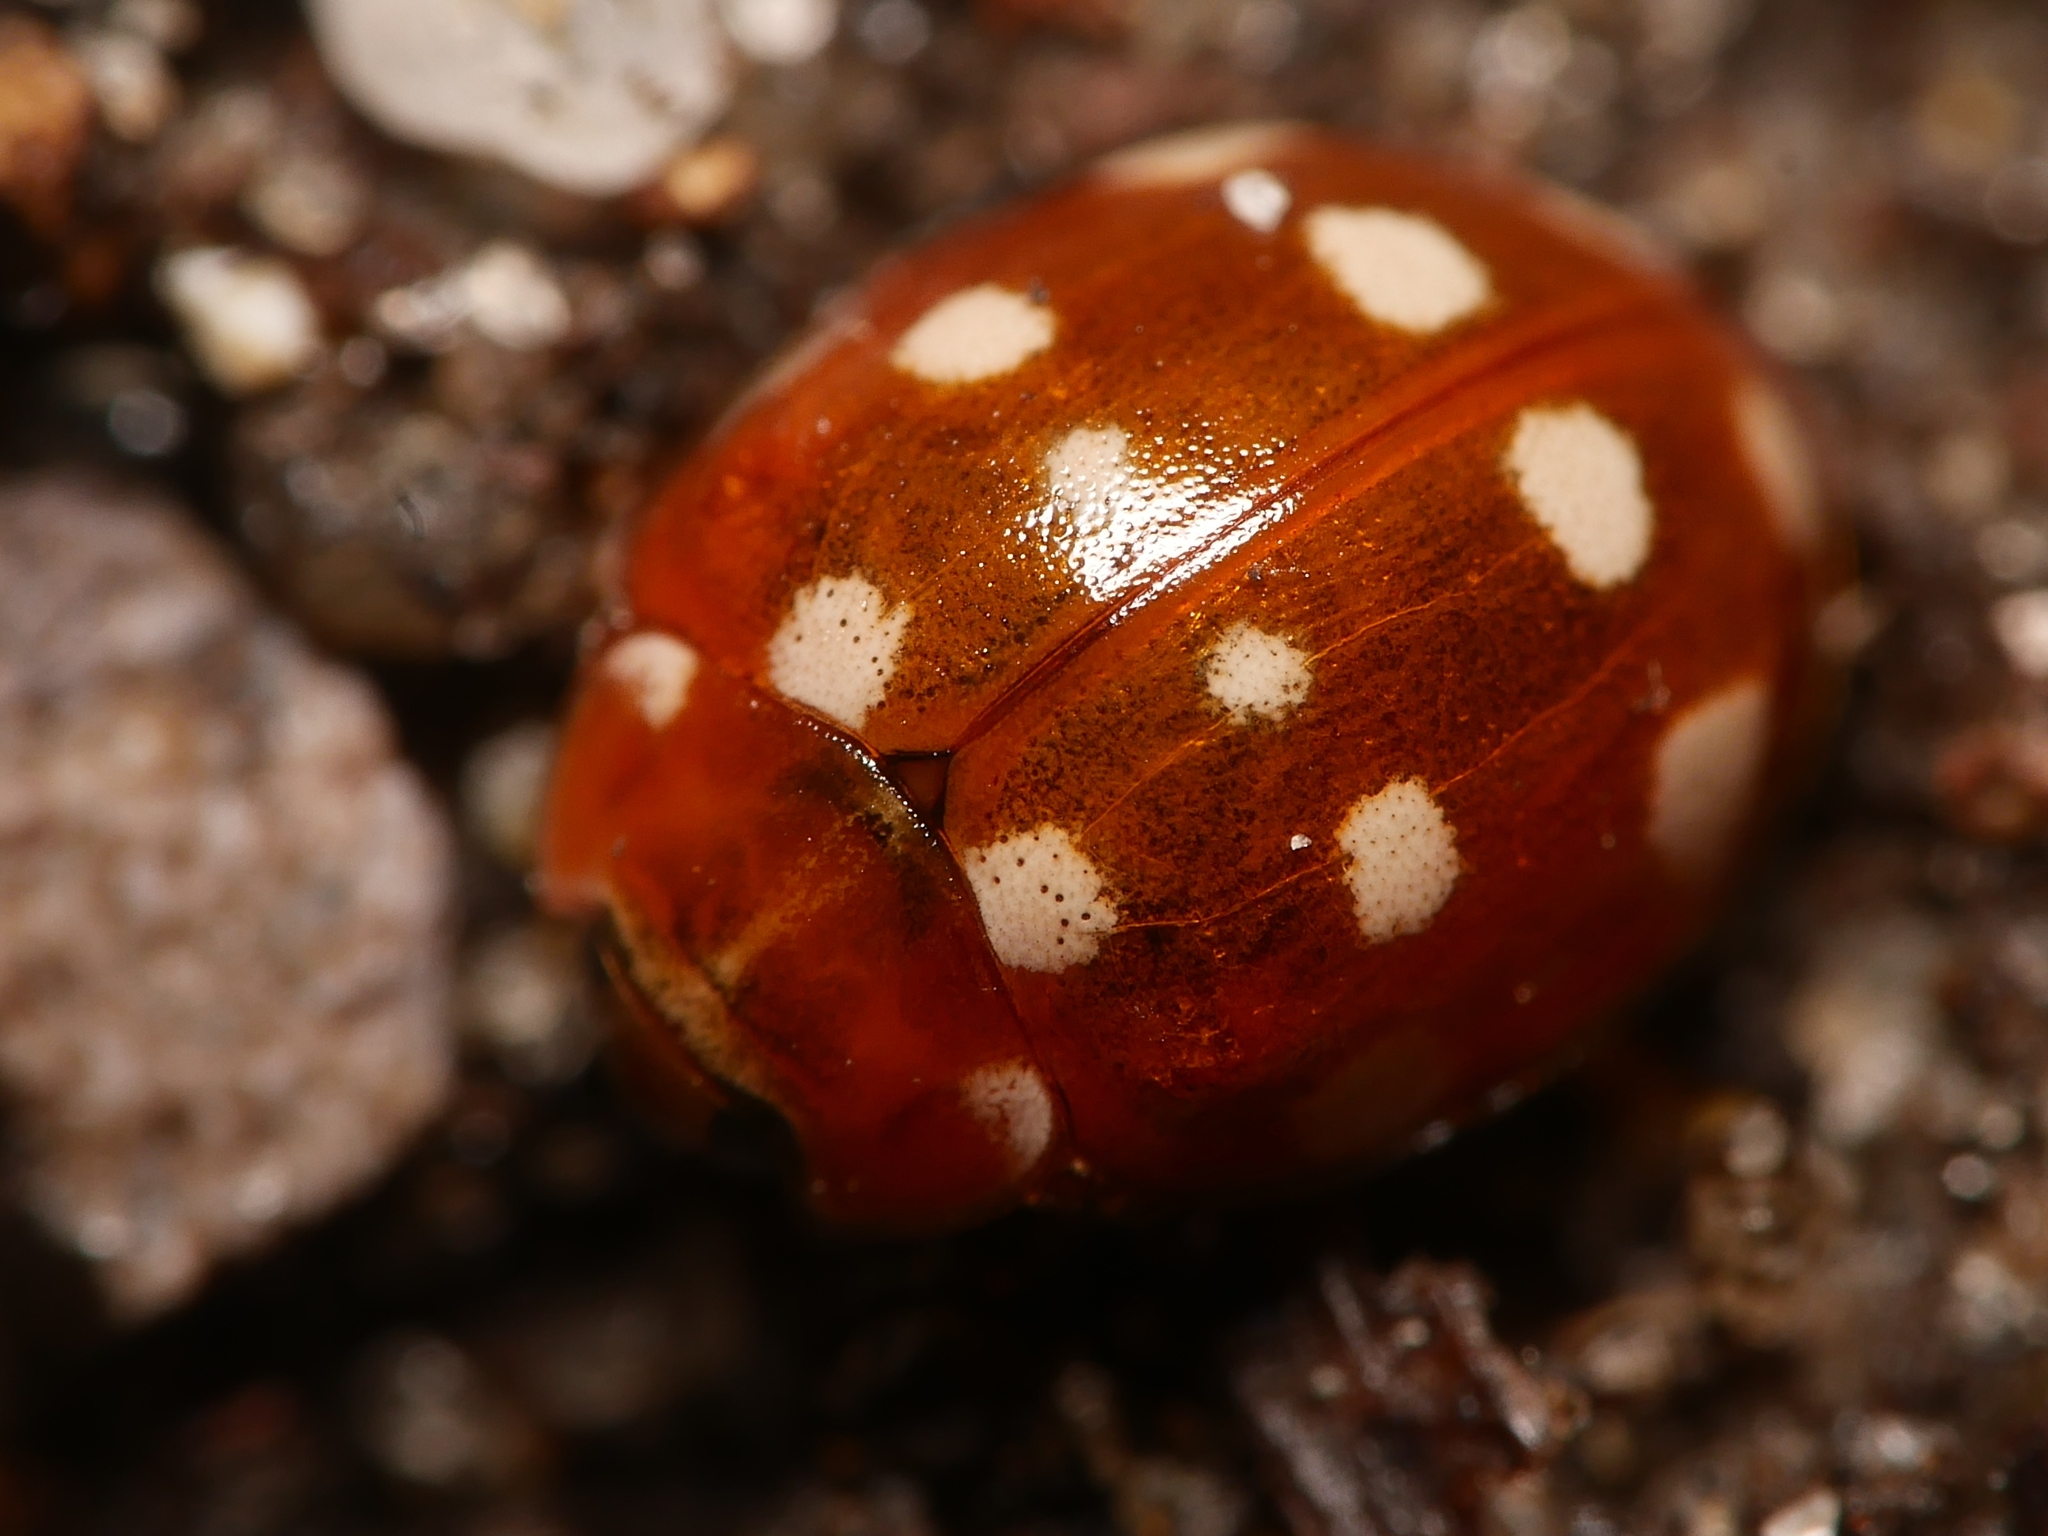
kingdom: Animalia
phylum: Arthropoda
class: Insecta
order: Coleoptera
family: Coccinellidae
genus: Calvia
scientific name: Calvia quatuordecimguttata
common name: Cream-spot ladybird
